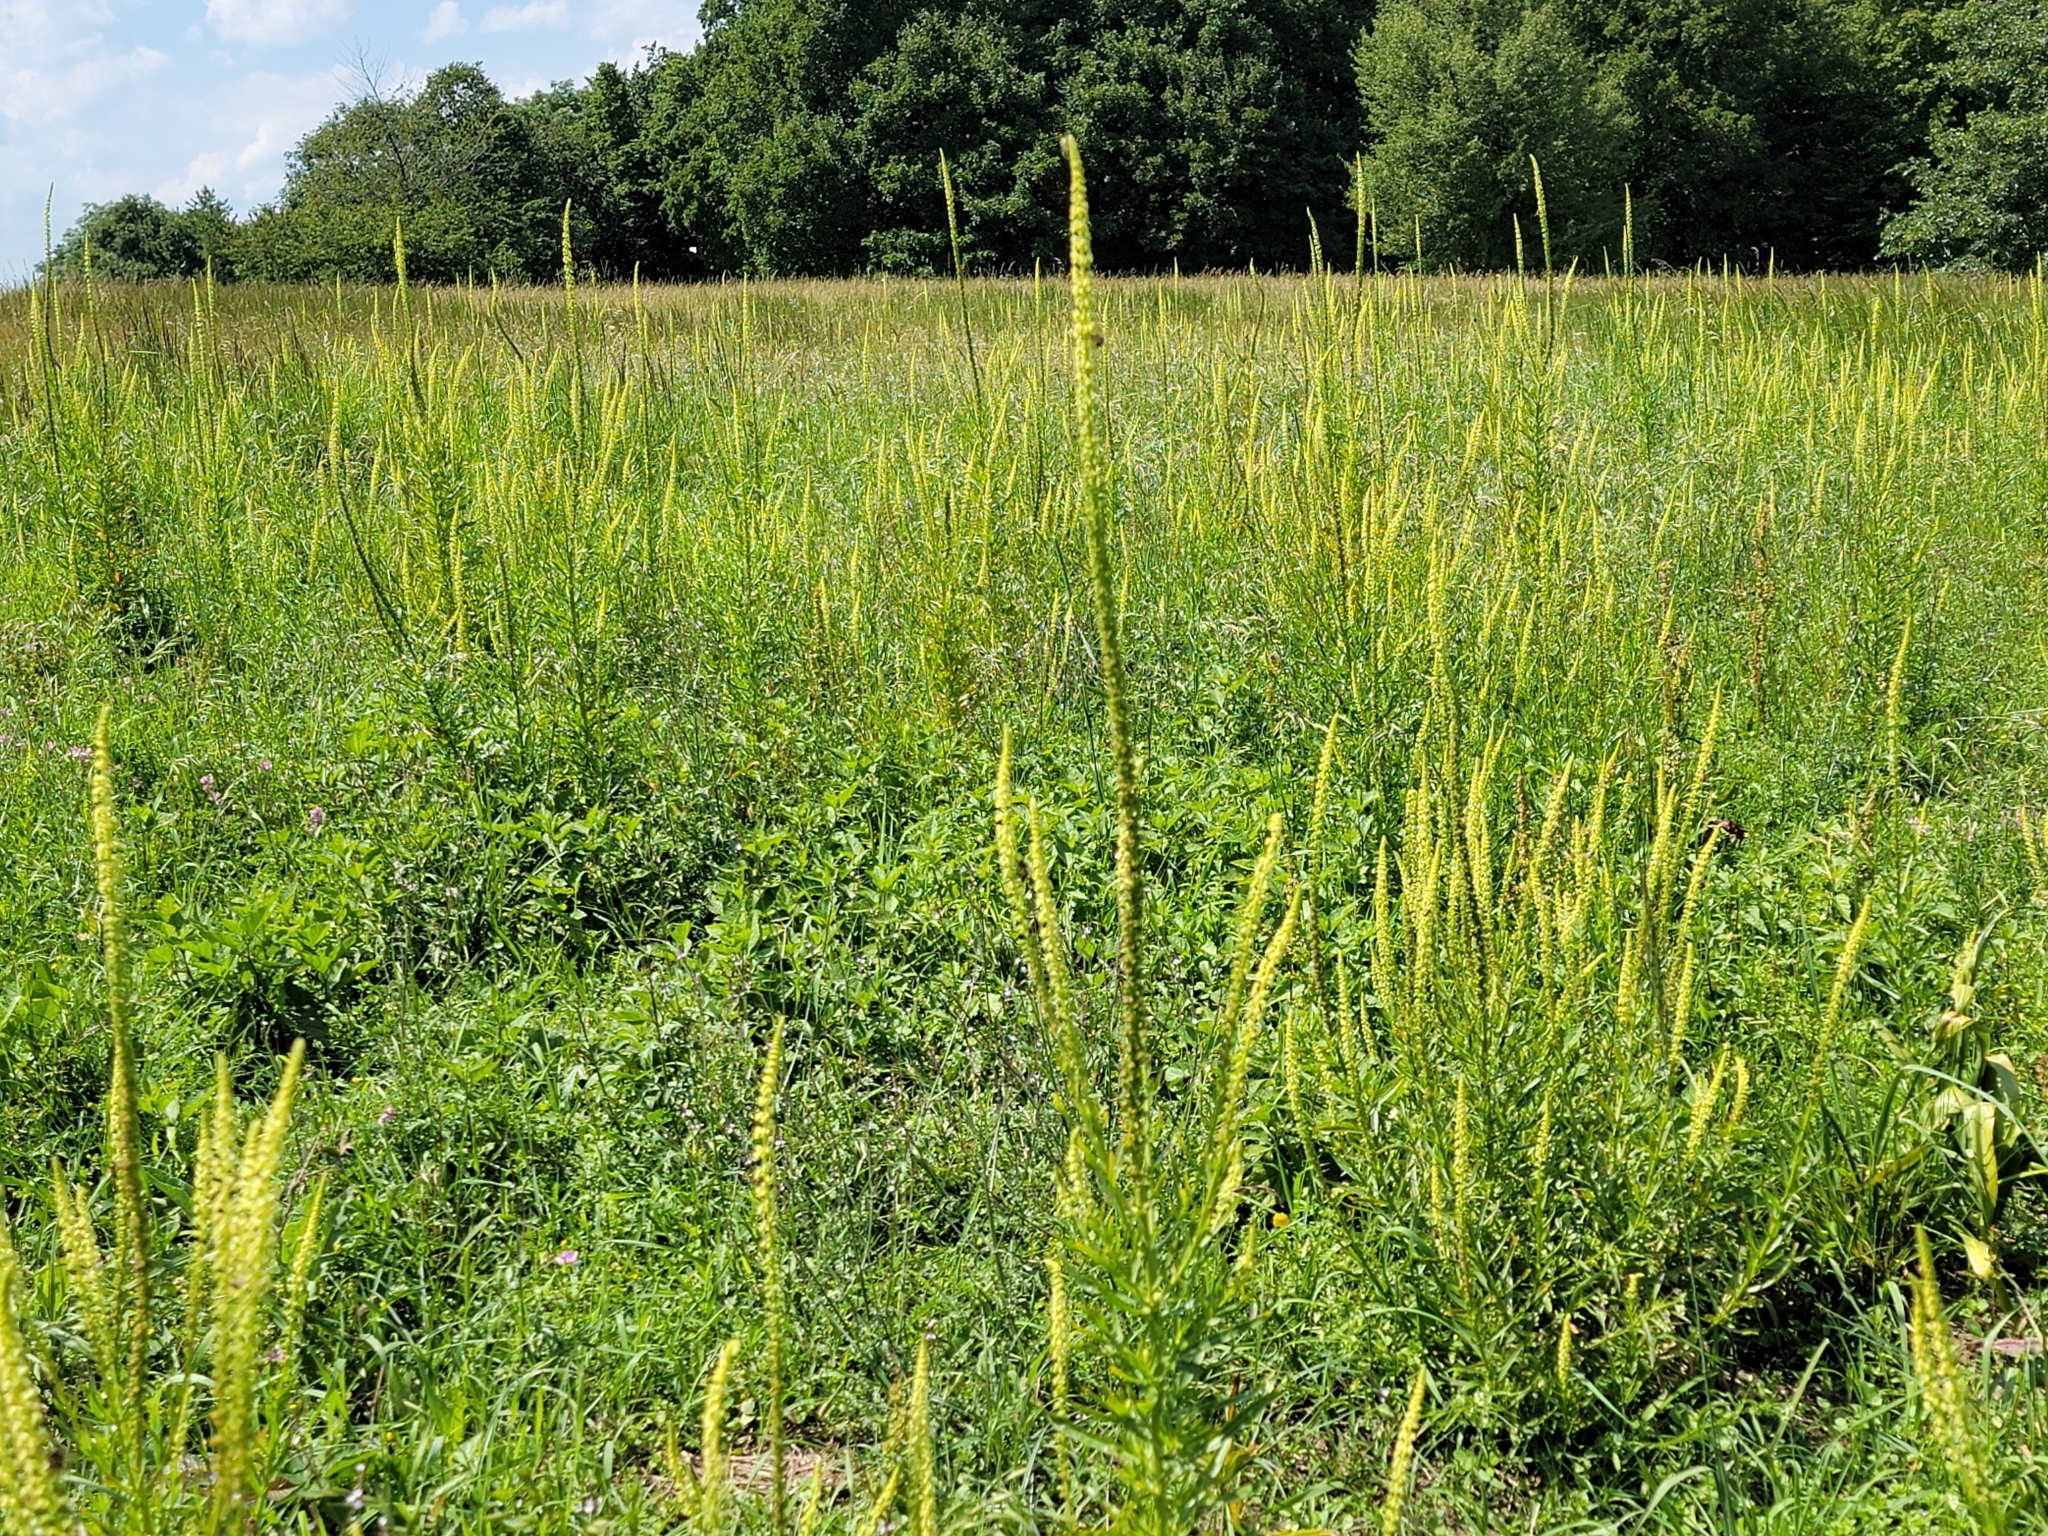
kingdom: Plantae
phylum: Tracheophyta
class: Magnoliopsida
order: Brassicales
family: Resedaceae
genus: Reseda
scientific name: Reseda luteola
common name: Weld
